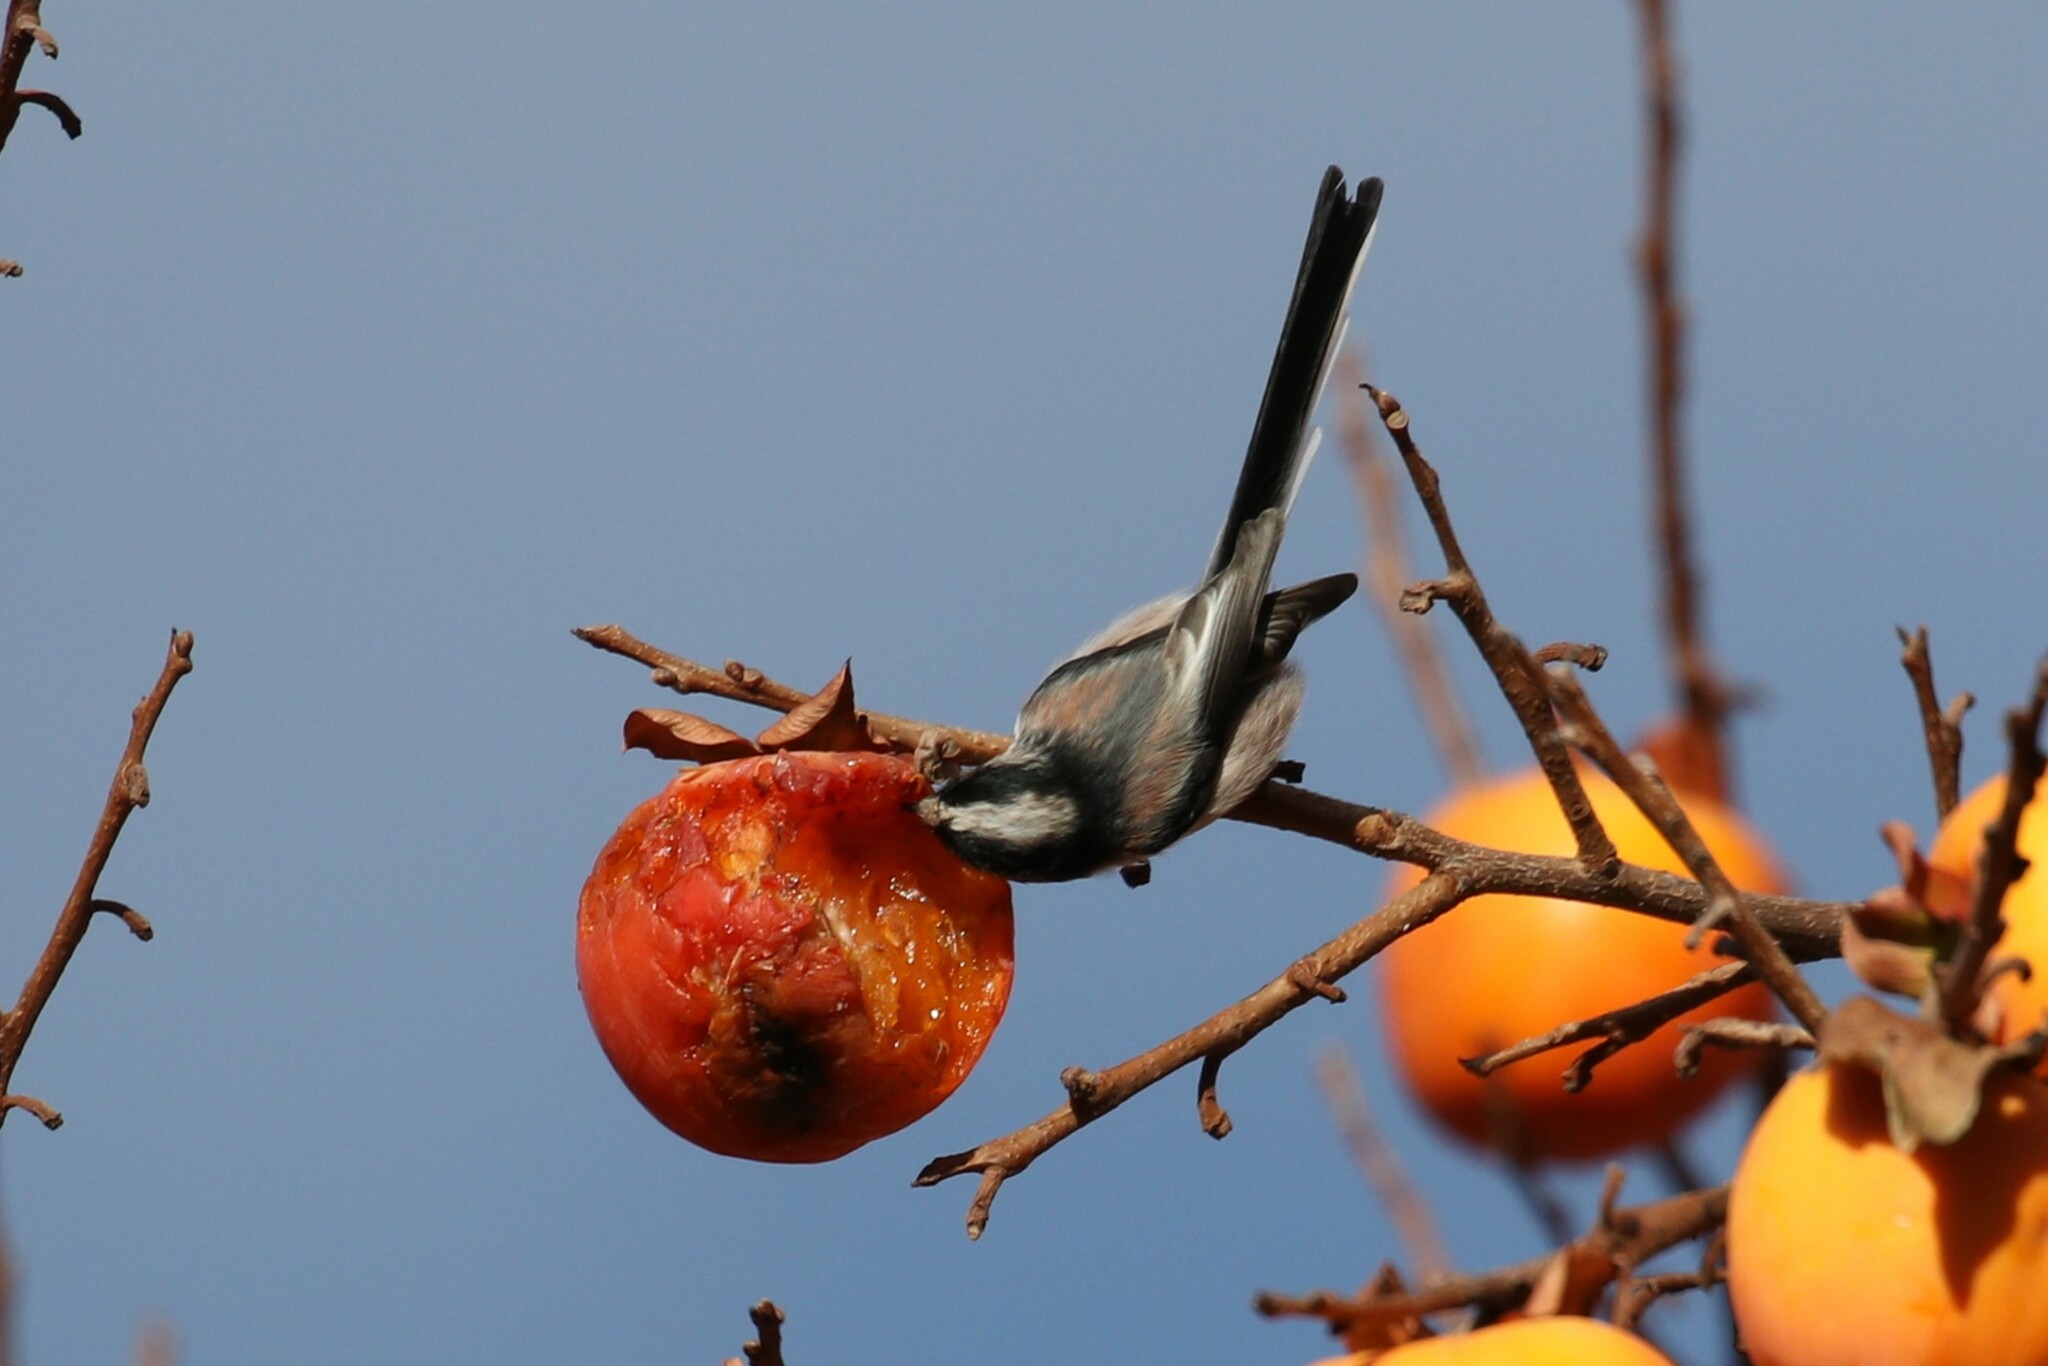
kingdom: Animalia
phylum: Chordata
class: Aves
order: Passeriformes
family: Aegithalidae
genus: Aegithalos
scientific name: Aegithalos caudatus
